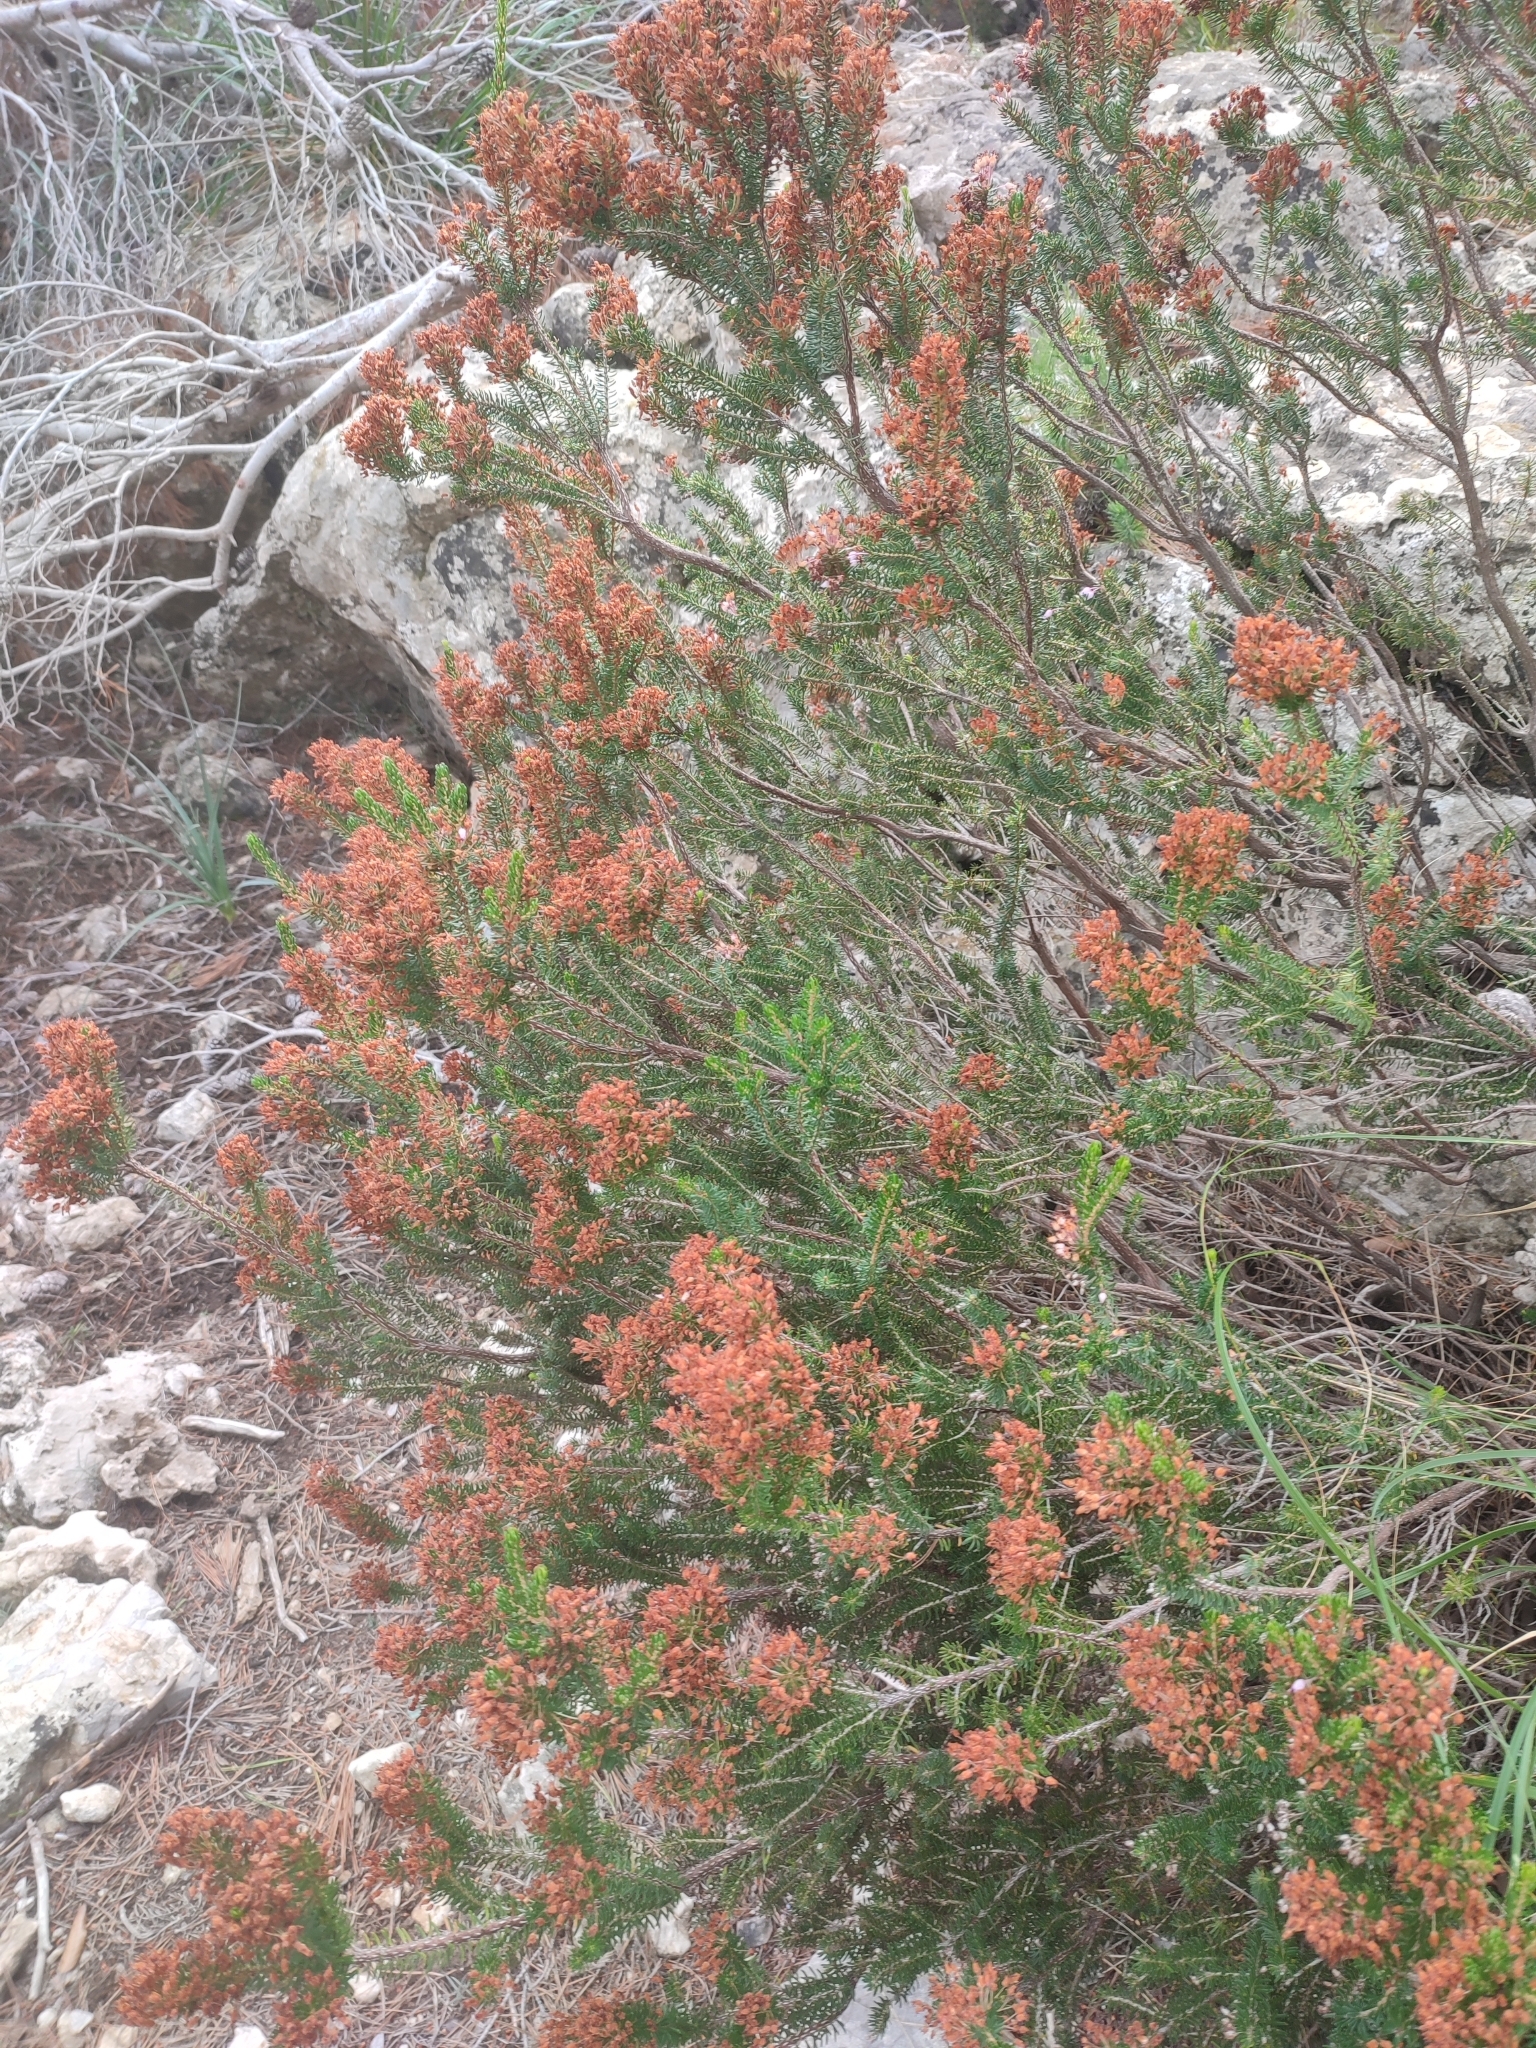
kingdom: Plantae
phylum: Tracheophyta
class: Magnoliopsida
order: Ericales
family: Ericaceae
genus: Erica
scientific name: Erica multiflora
